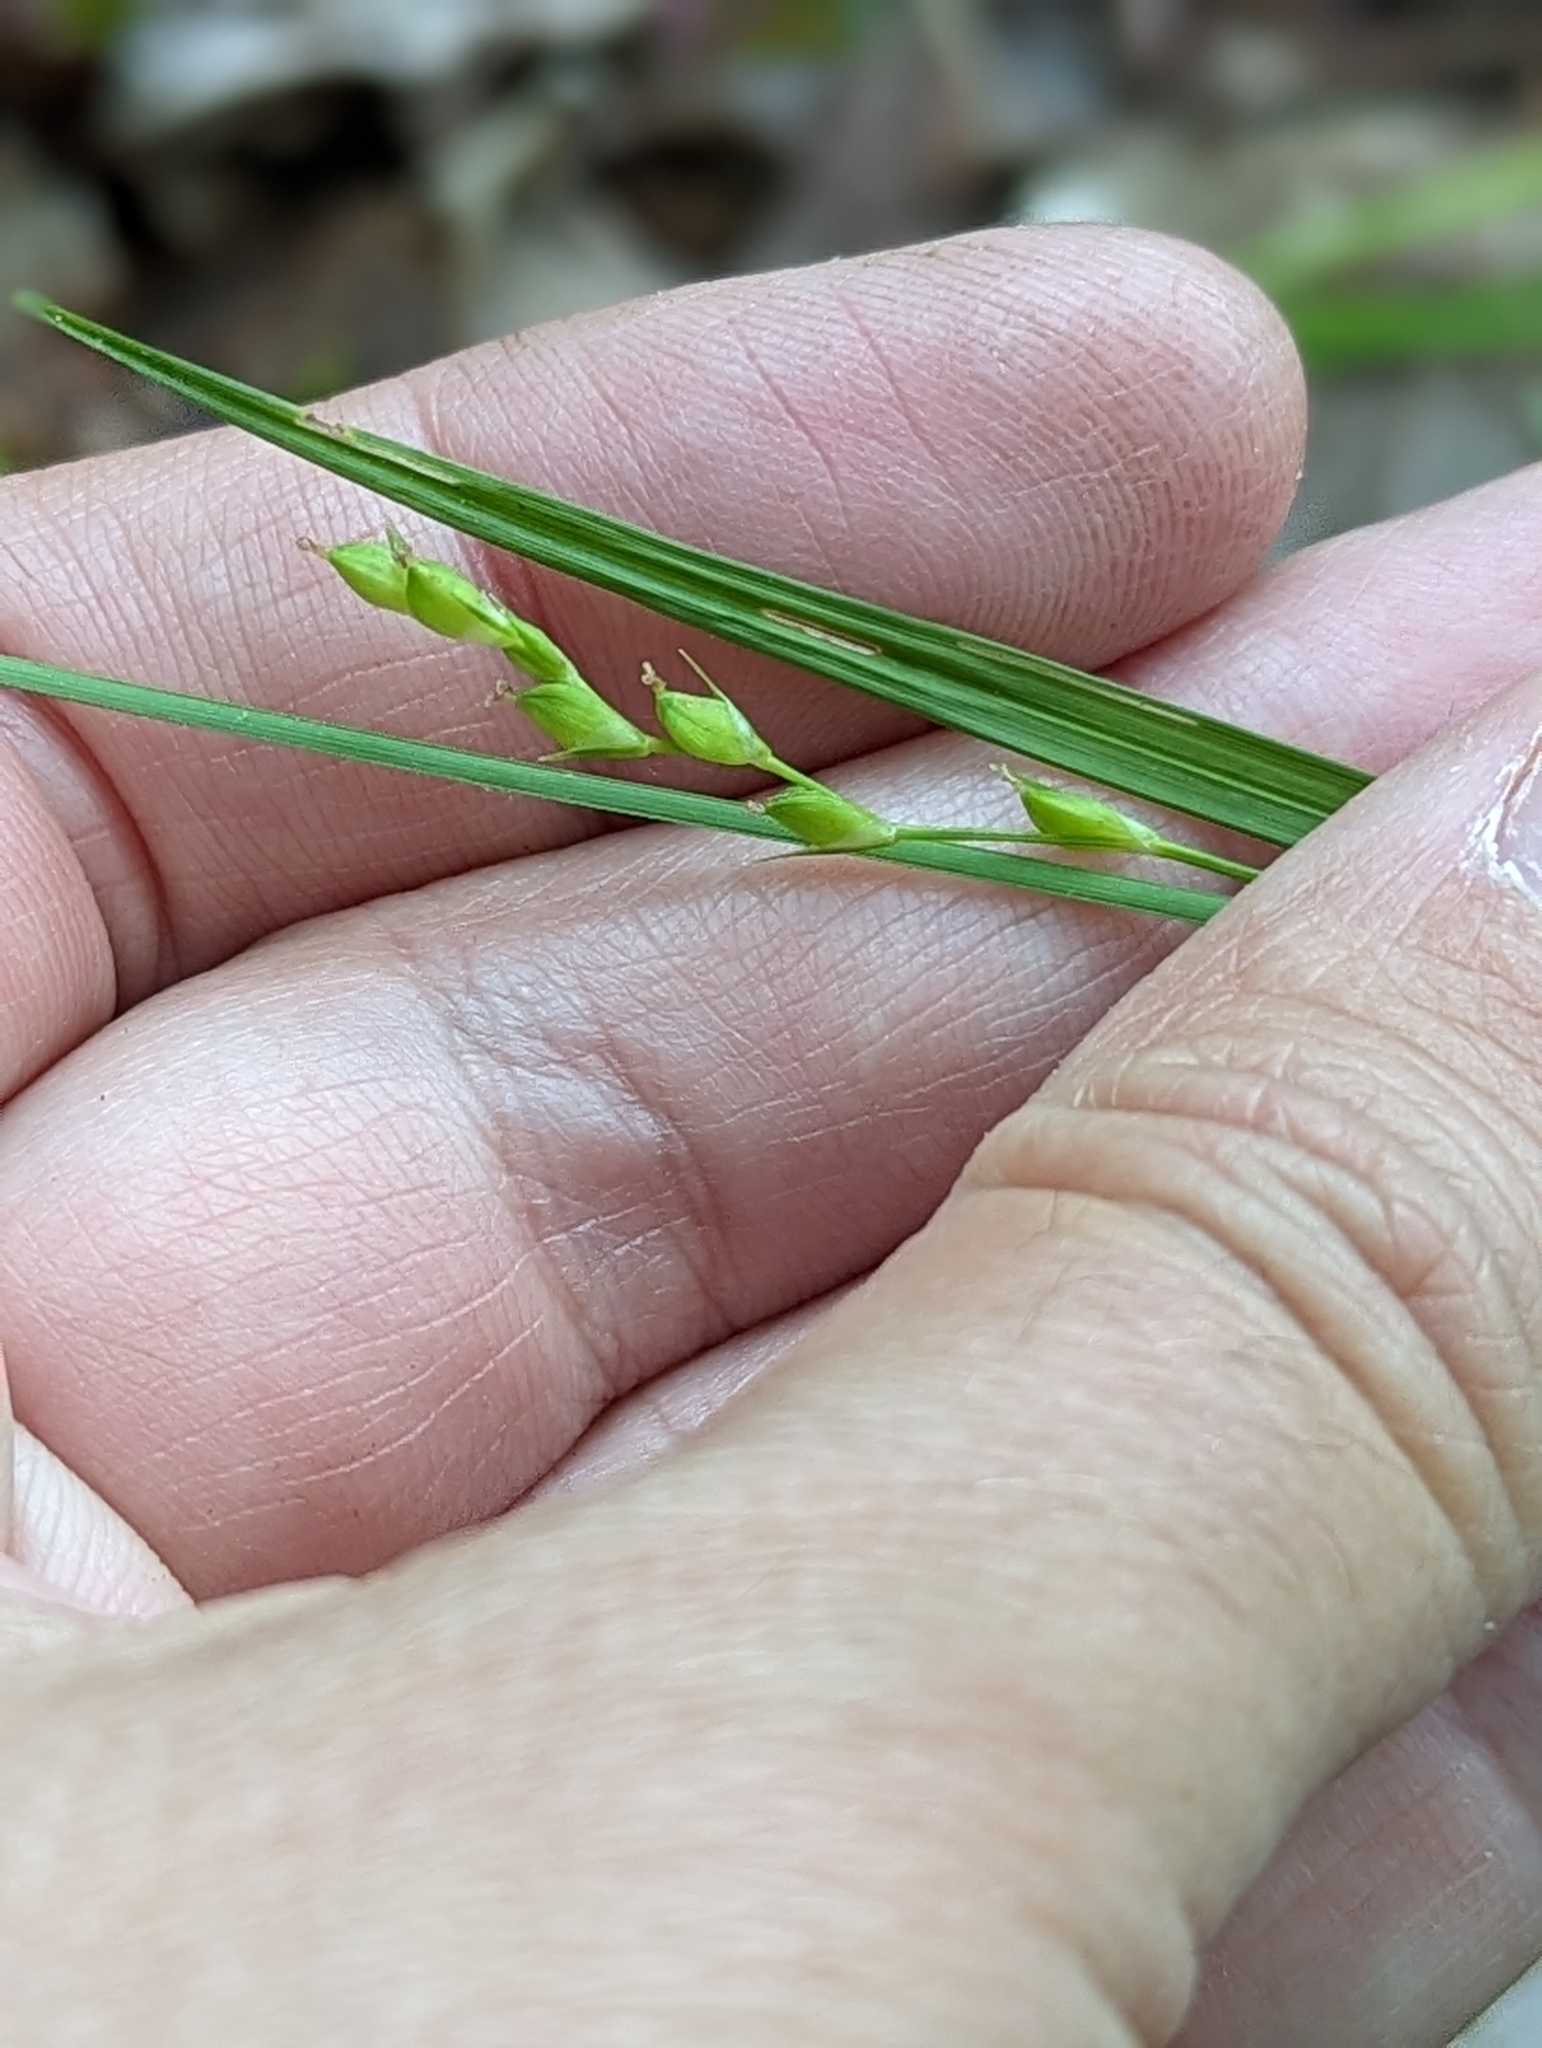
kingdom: Plantae
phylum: Tracheophyta
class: Liliopsida
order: Poales
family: Cyperaceae
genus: Carex
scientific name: Carex impressinervia
